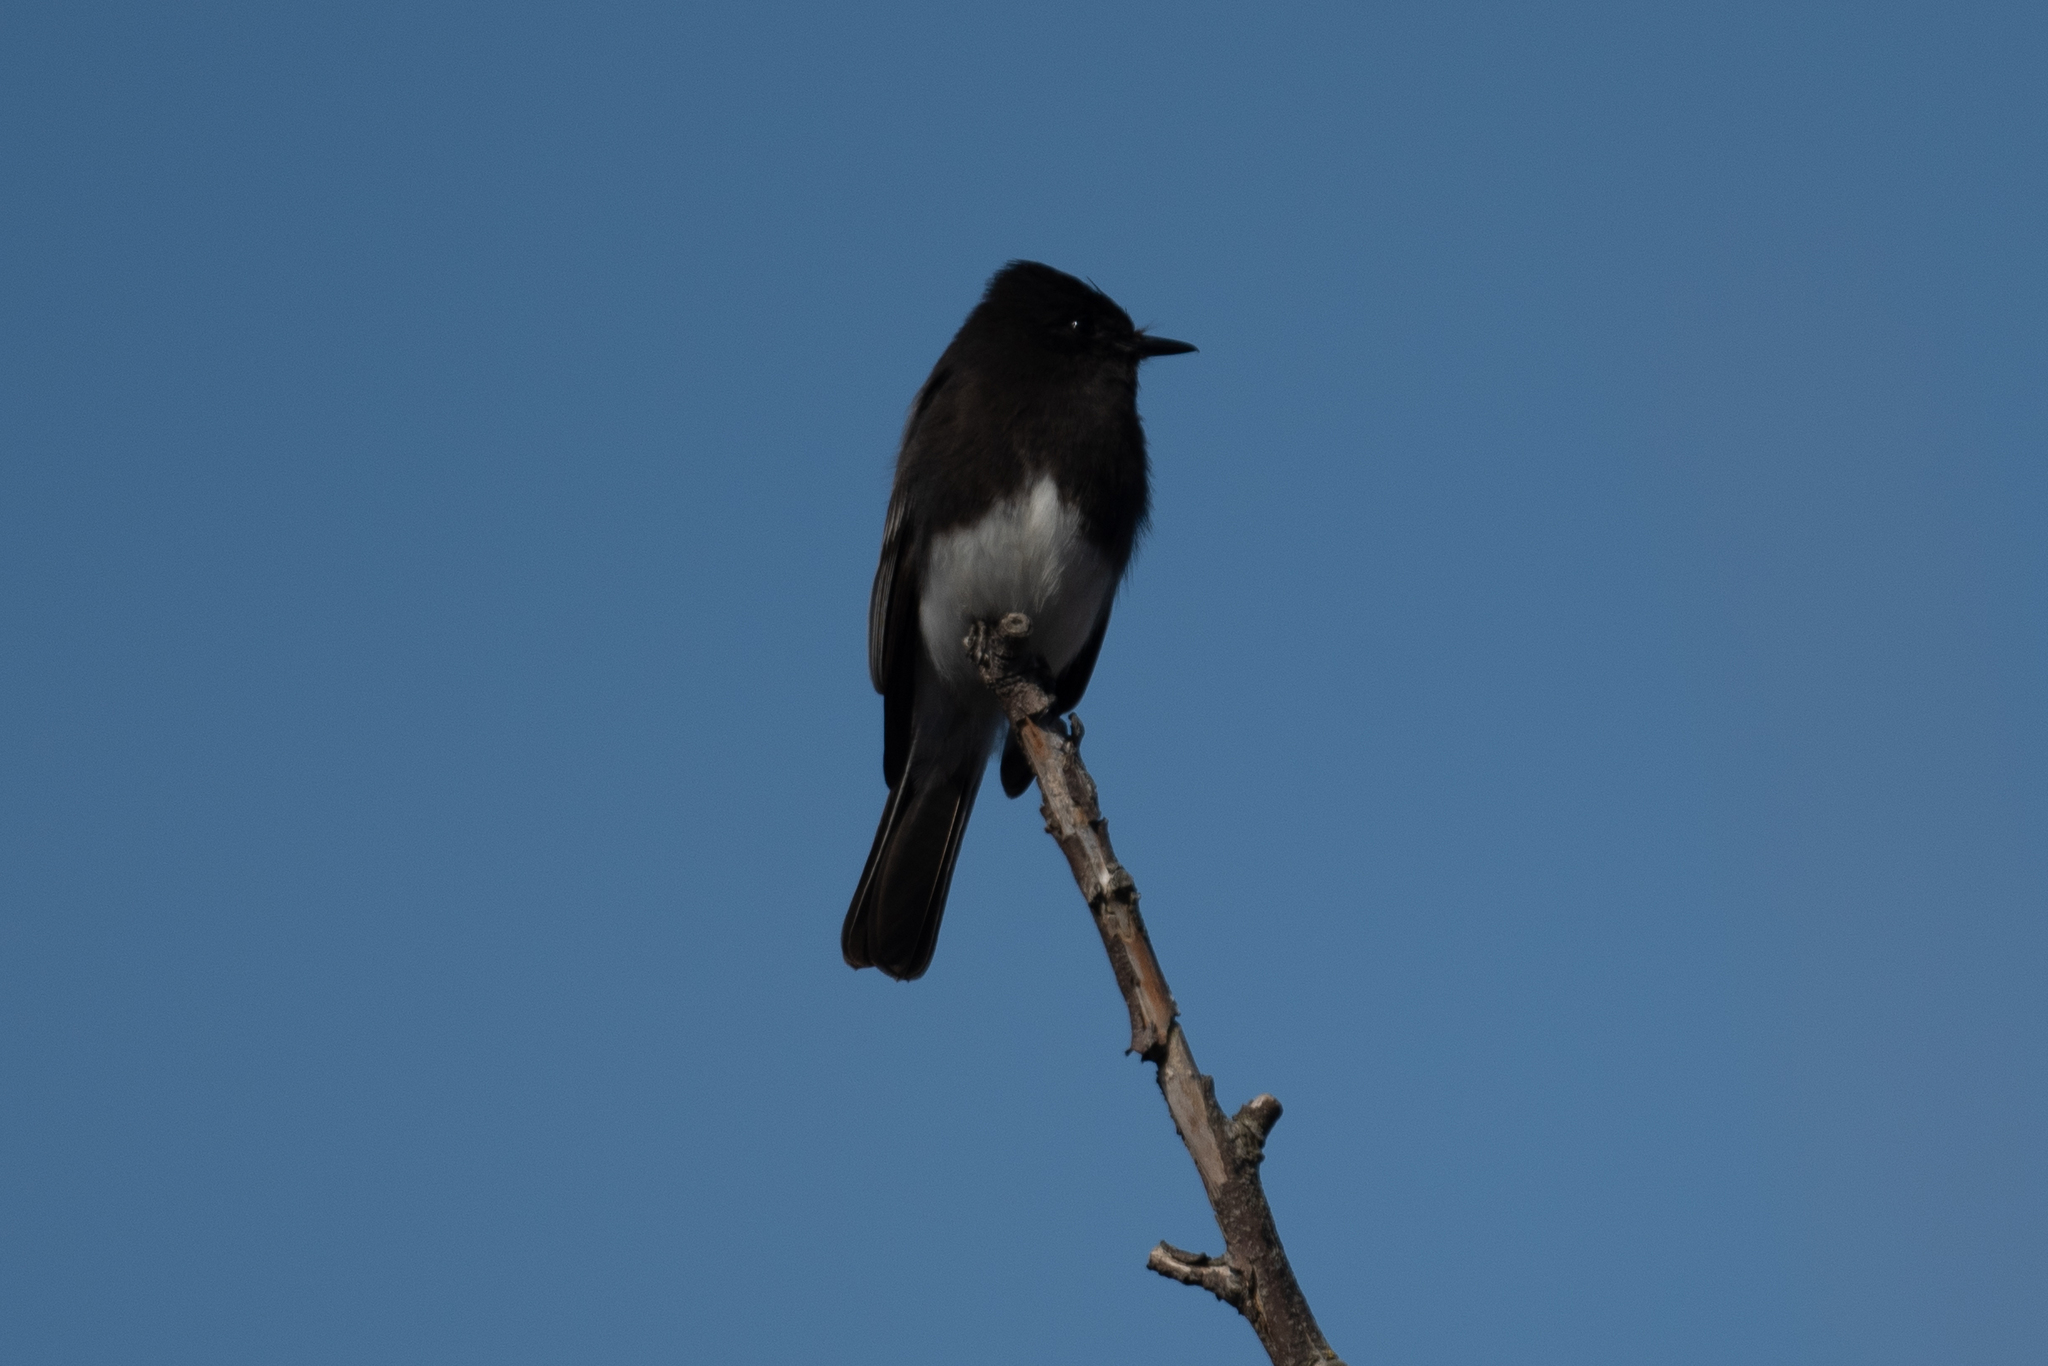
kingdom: Animalia
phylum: Chordata
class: Aves
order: Passeriformes
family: Tyrannidae
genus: Sayornis
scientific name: Sayornis nigricans
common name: Black phoebe
